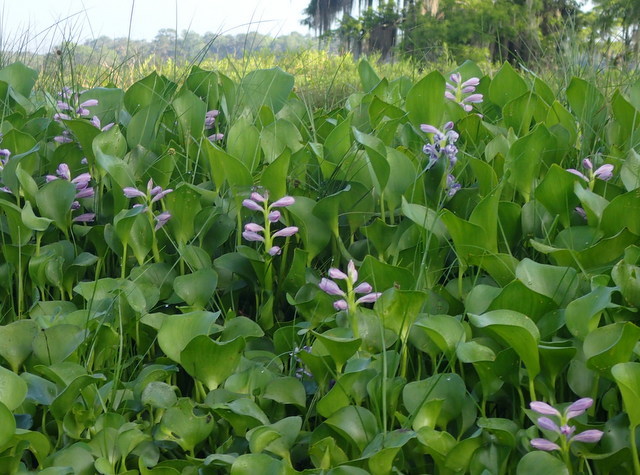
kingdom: Plantae
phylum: Tracheophyta
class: Liliopsida
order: Commelinales
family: Pontederiaceae
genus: Pontederia
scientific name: Pontederia crassipes
